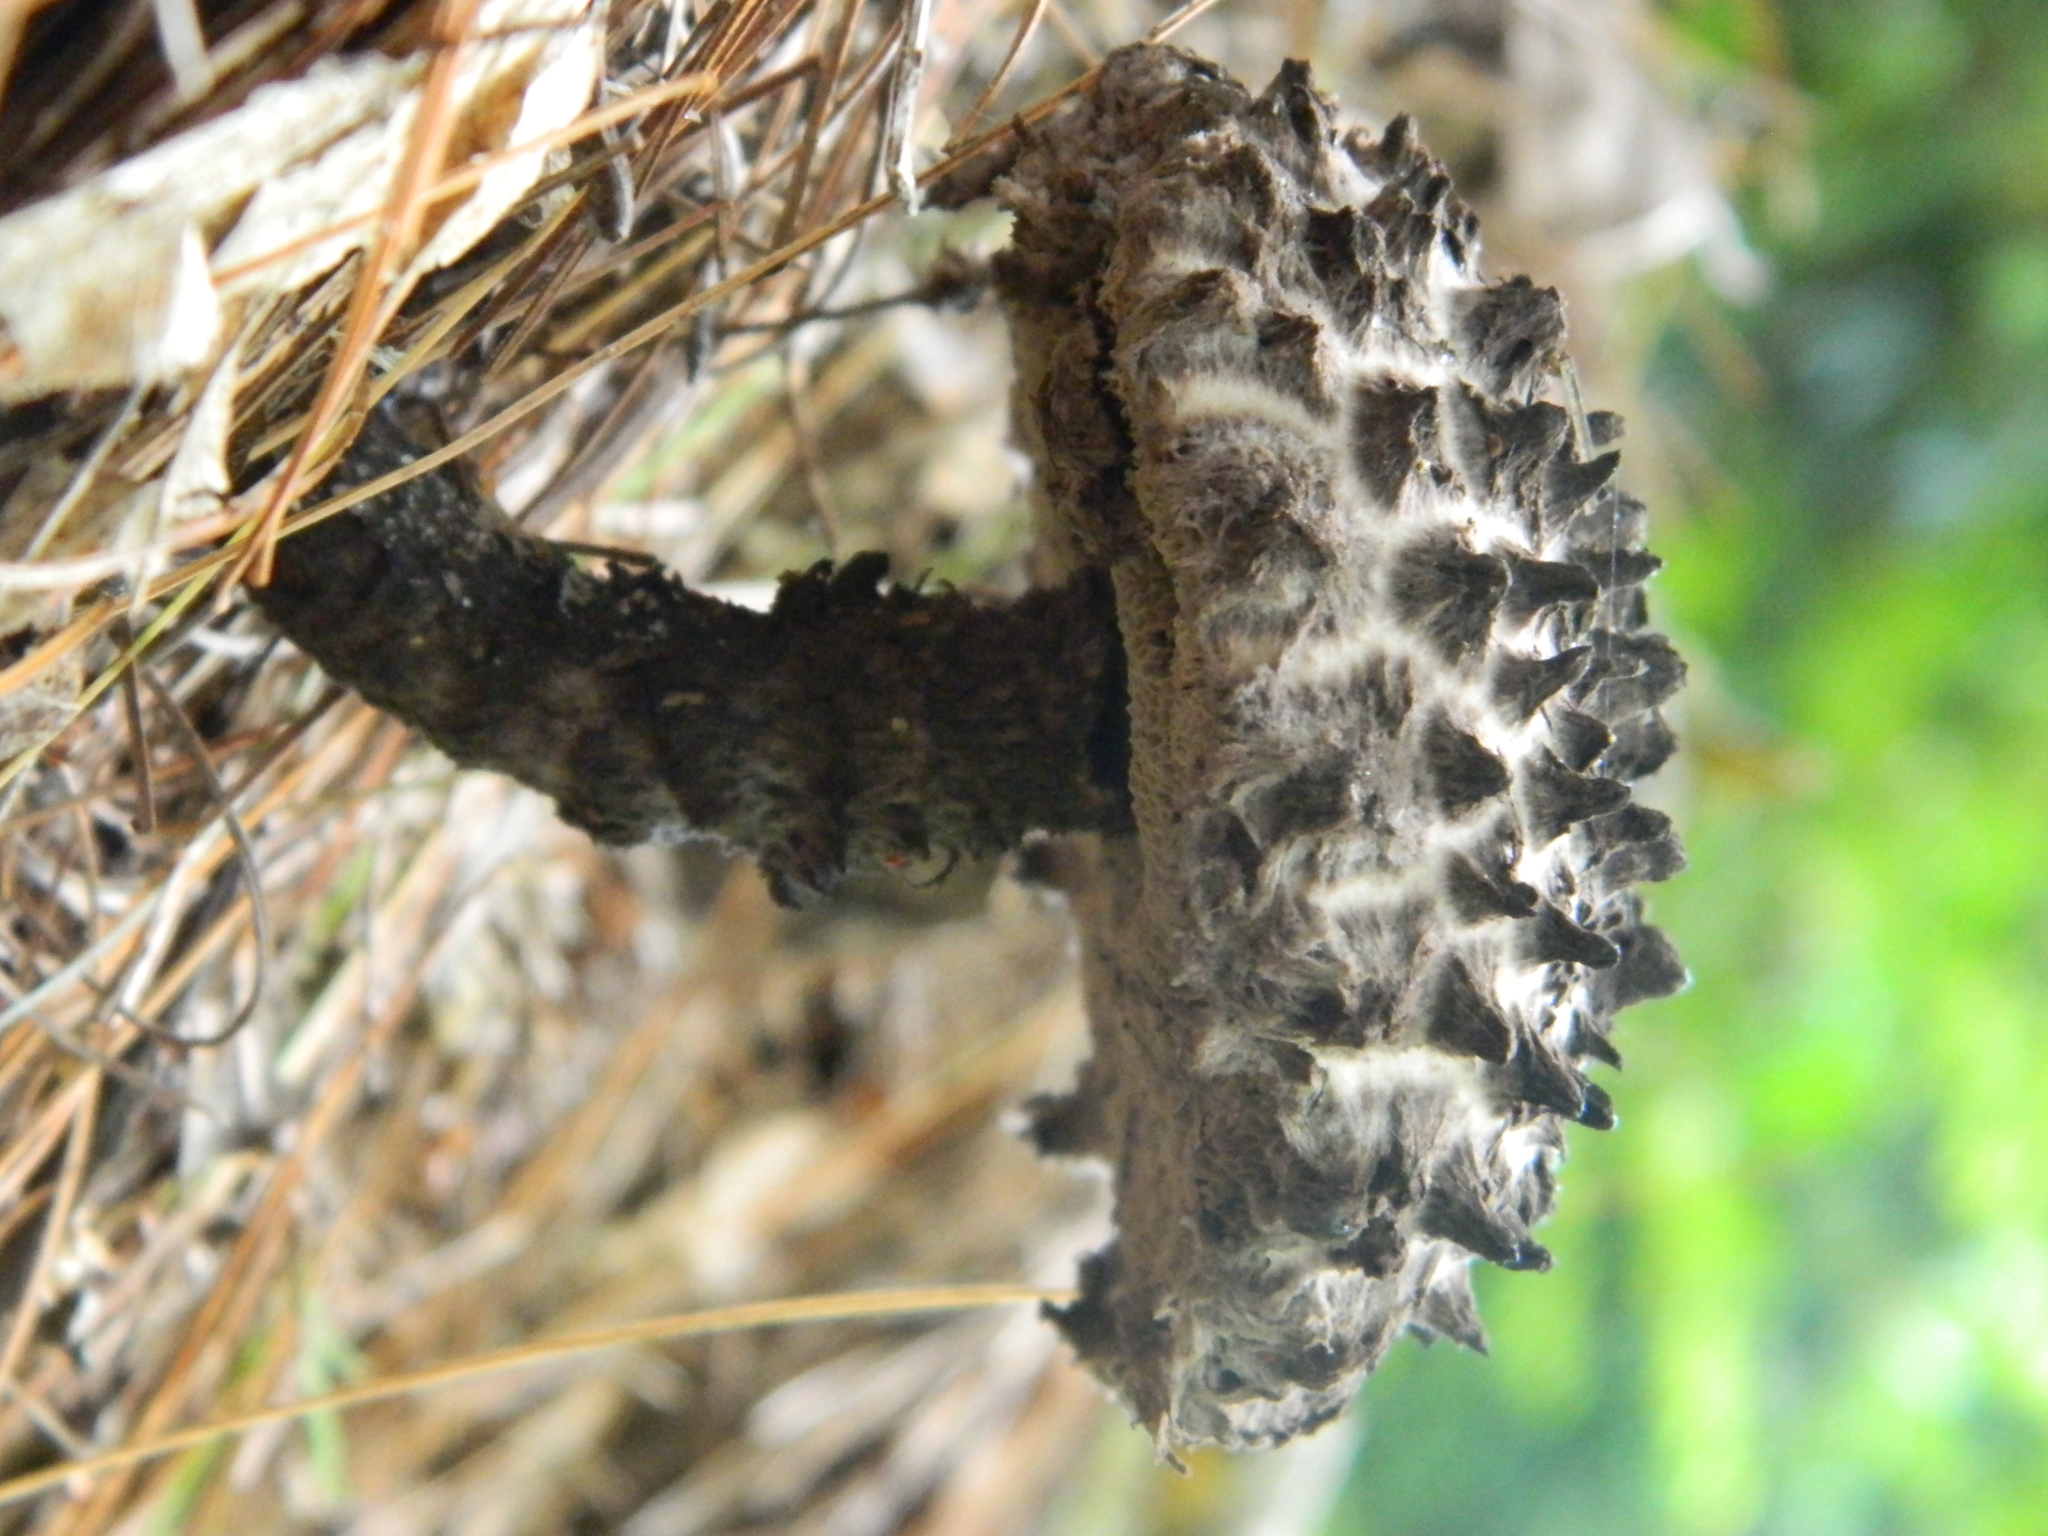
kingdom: Fungi
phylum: Basidiomycota
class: Agaricomycetes
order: Boletales
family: Boletaceae
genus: Strobilomyces
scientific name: Strobilomyces strobilaceus
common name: Old man of the woods
